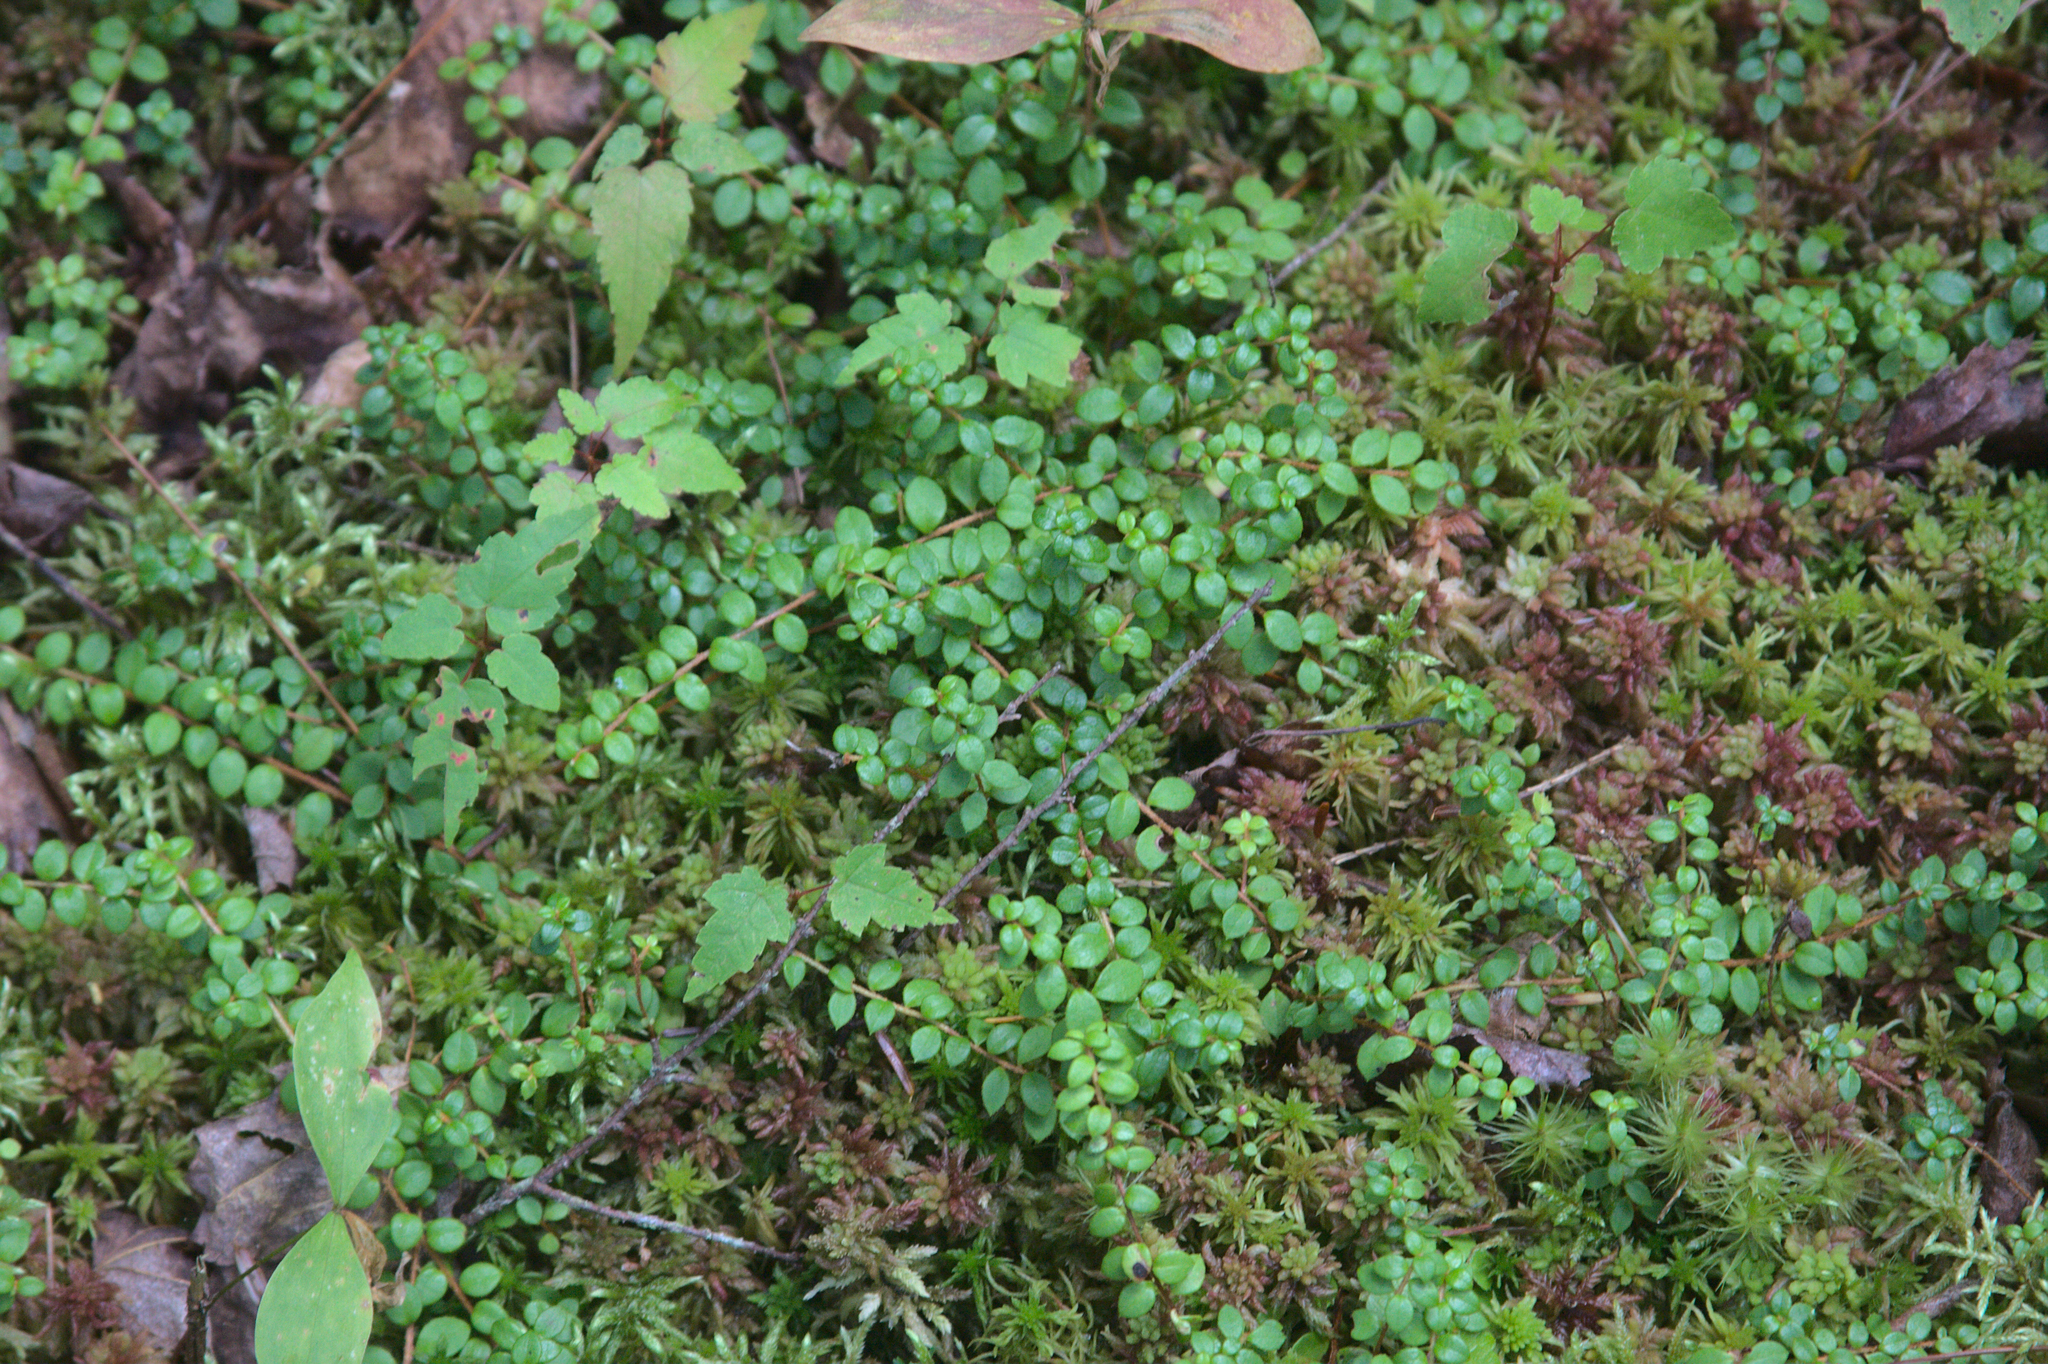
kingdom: Plantae
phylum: Tracheophyta
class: Magnoliopsida
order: Ericales
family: Ericaceae
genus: Gaultheria
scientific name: Gaultheria hispidula
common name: Cancer wintergreen
